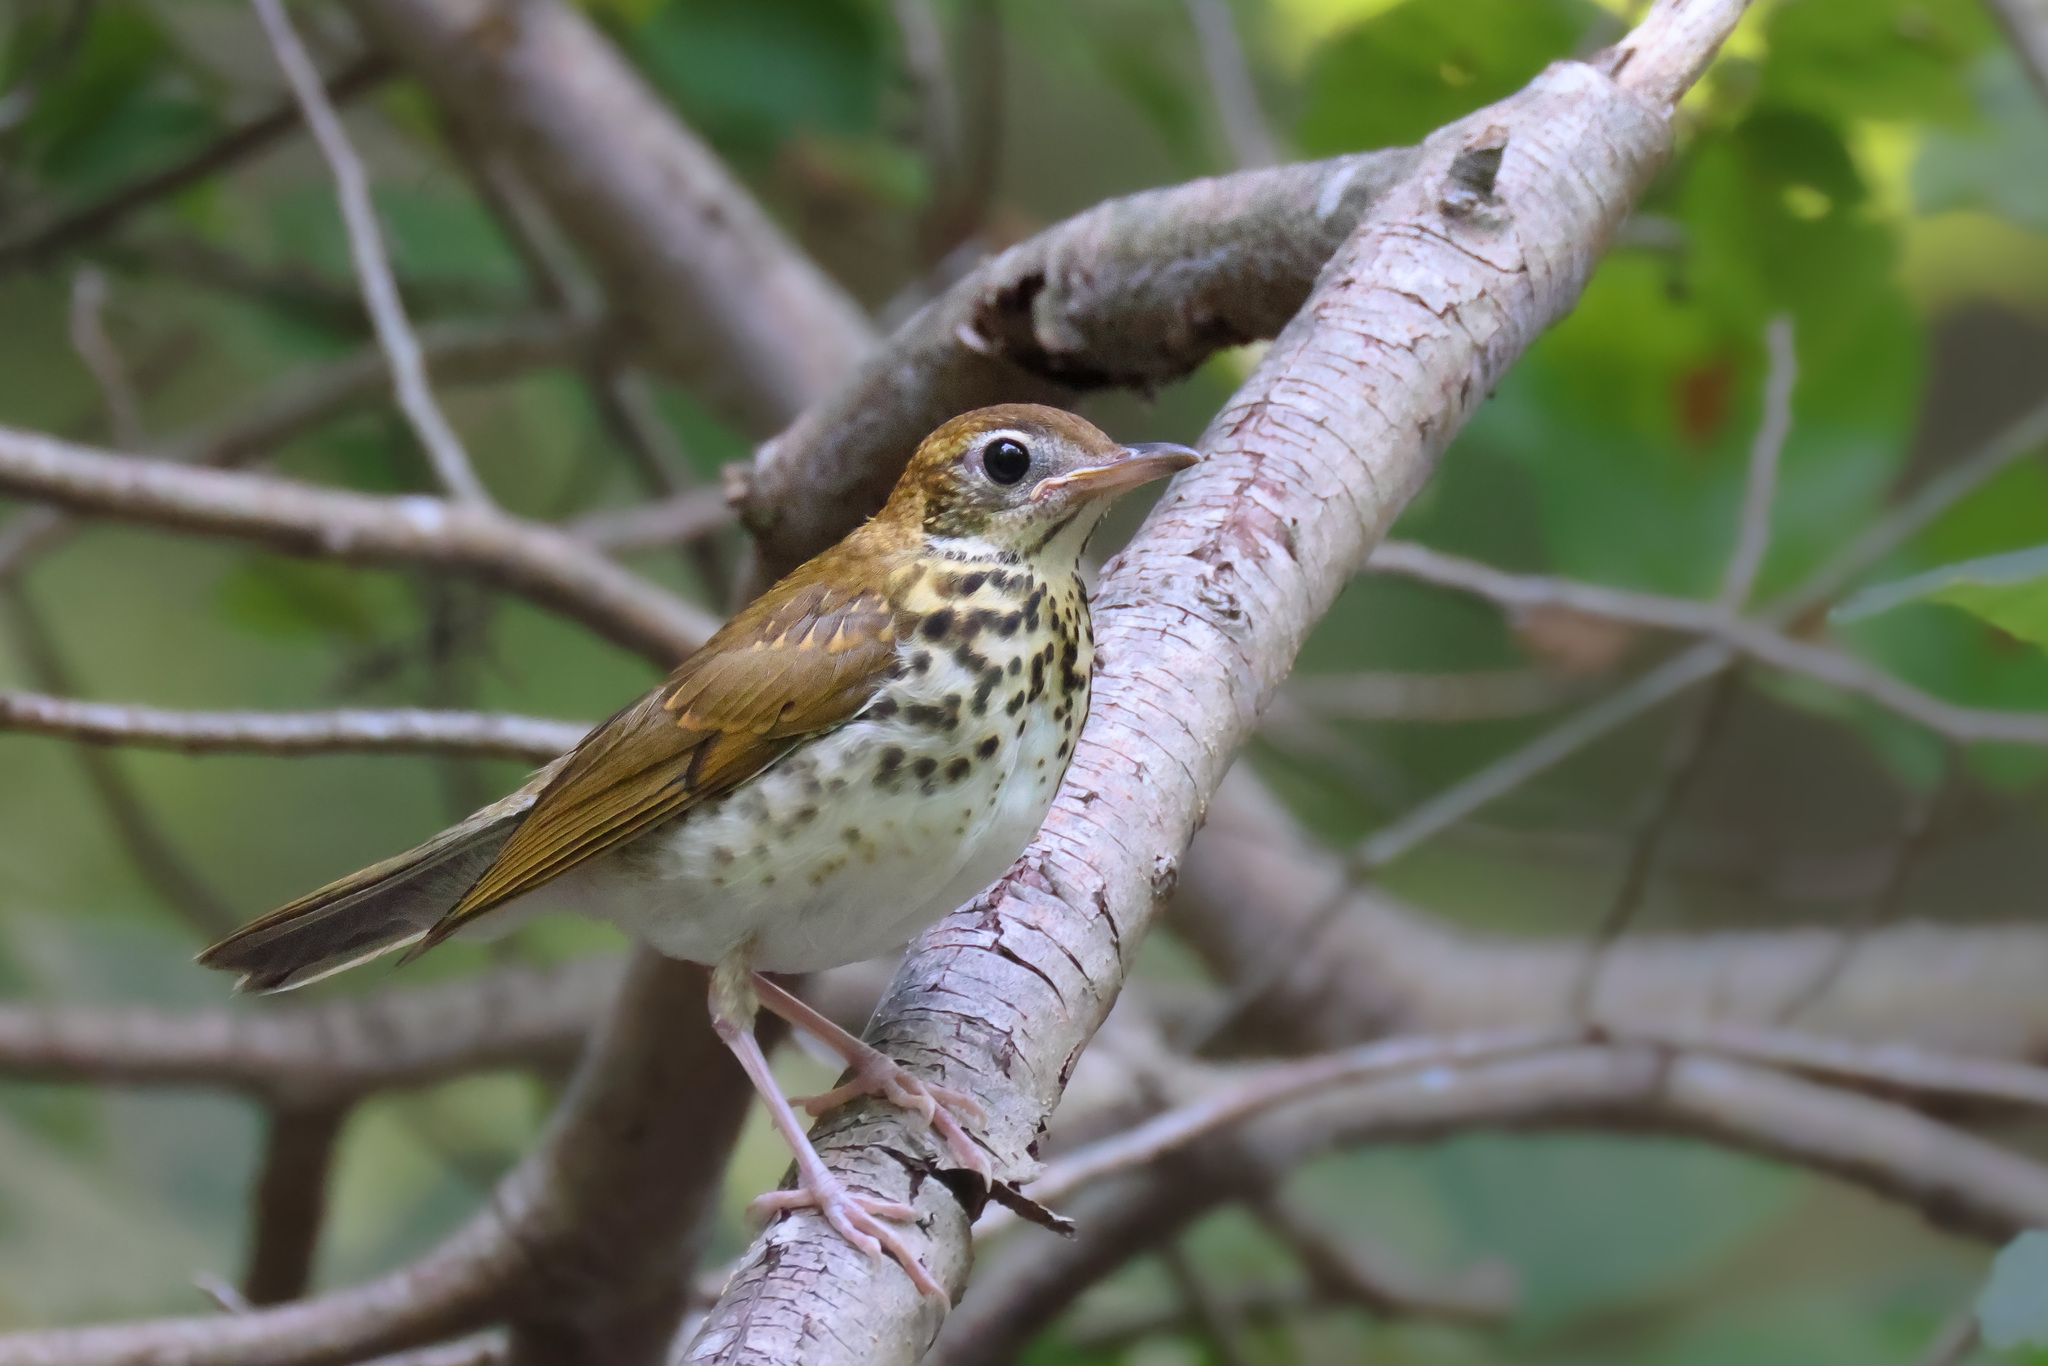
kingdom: Animalia
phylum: Chordata
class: Aves
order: Passeriformes
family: Turdidae
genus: Hylocichla
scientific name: Hylocichla mustelina
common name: Wood thrush
